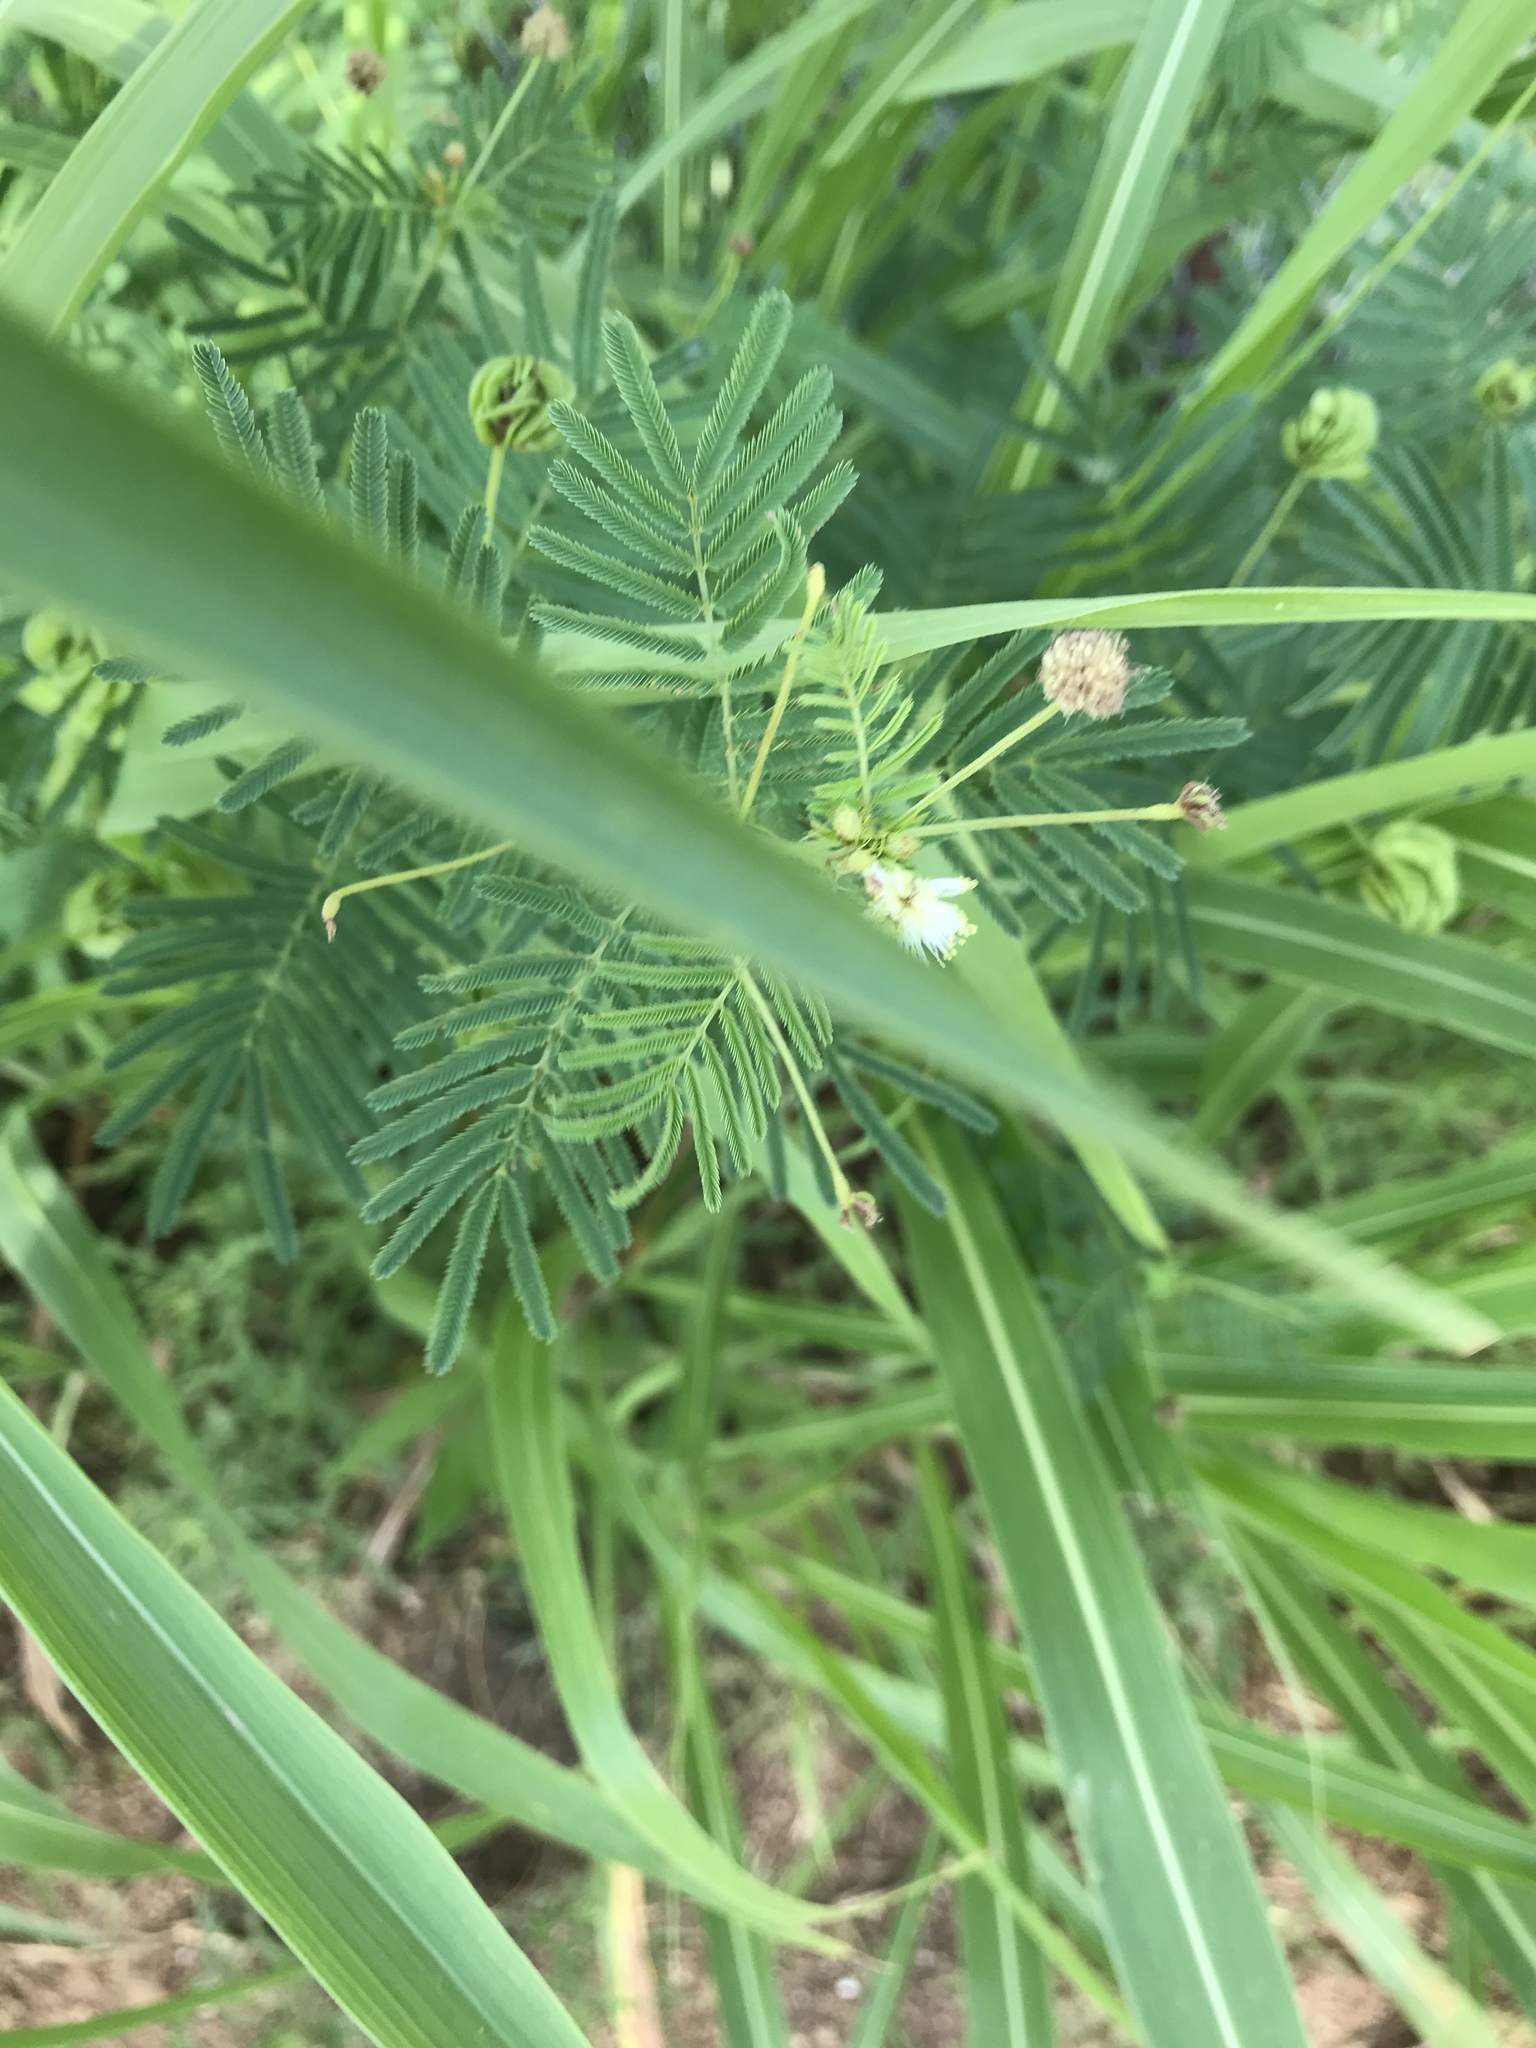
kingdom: Plantae
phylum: Tracheophyta
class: Magnoliopsida
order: Fabales
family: Fabaceae
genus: Desmanthus
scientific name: Desmanthus illinoensis
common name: Illinois bundle-flower
